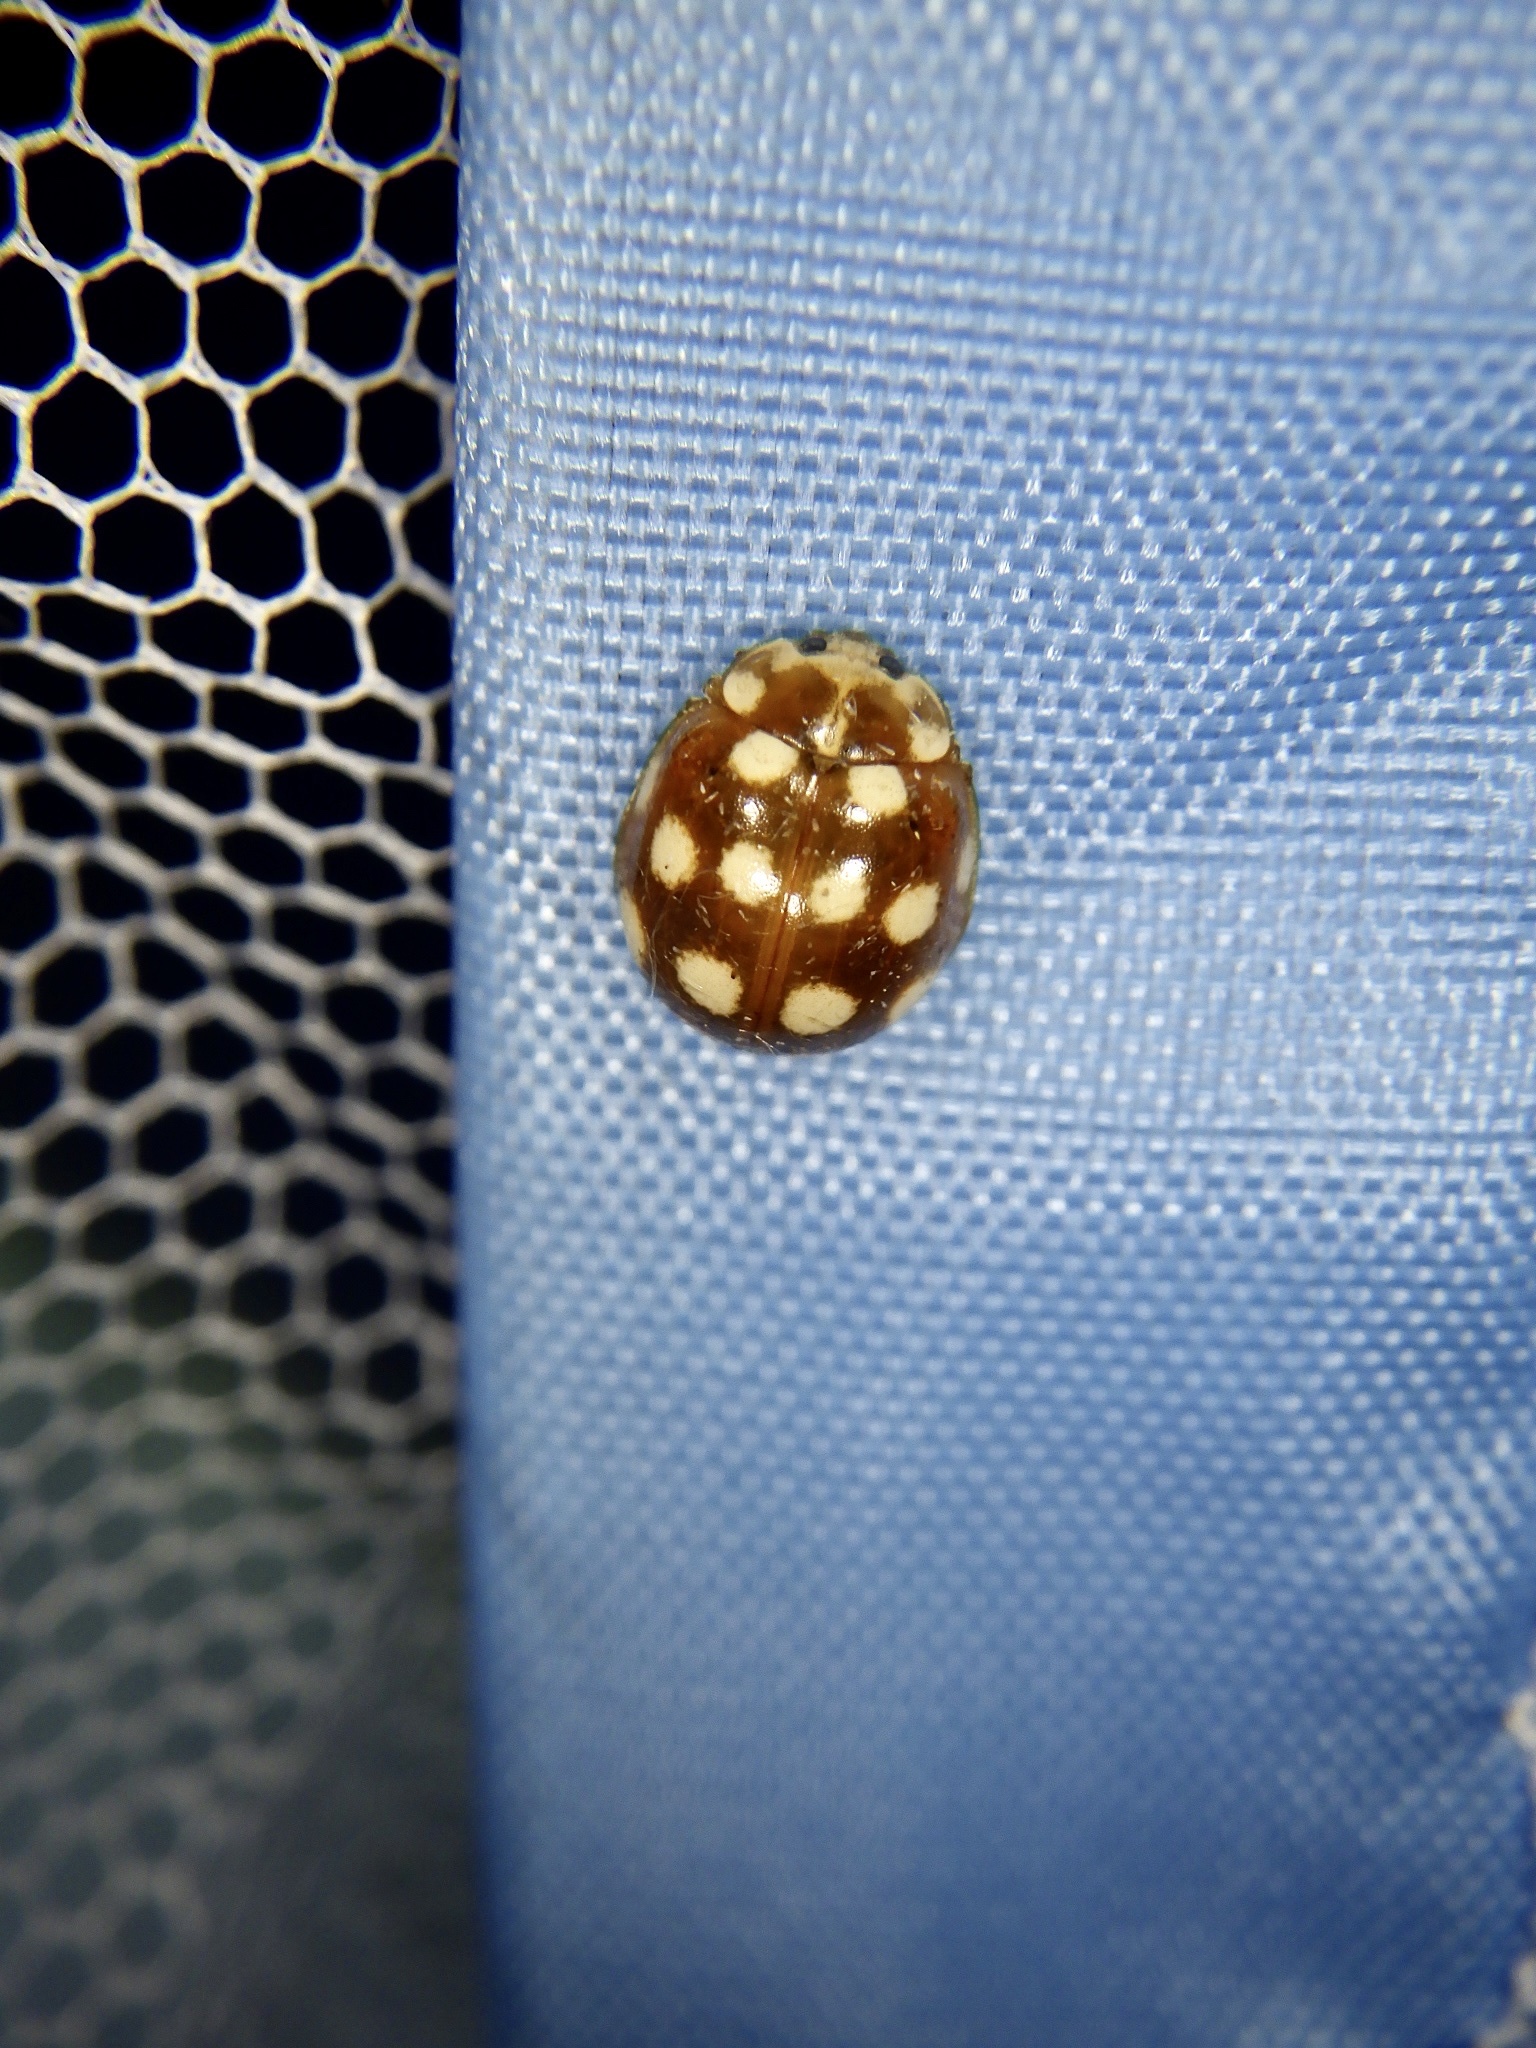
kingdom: Animalia
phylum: Arthropoda
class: Insecta
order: Coleoptera
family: Coccinellidae
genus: Calvia
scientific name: Calvia quatuordecimguttata
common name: Cream-spot ladybird
